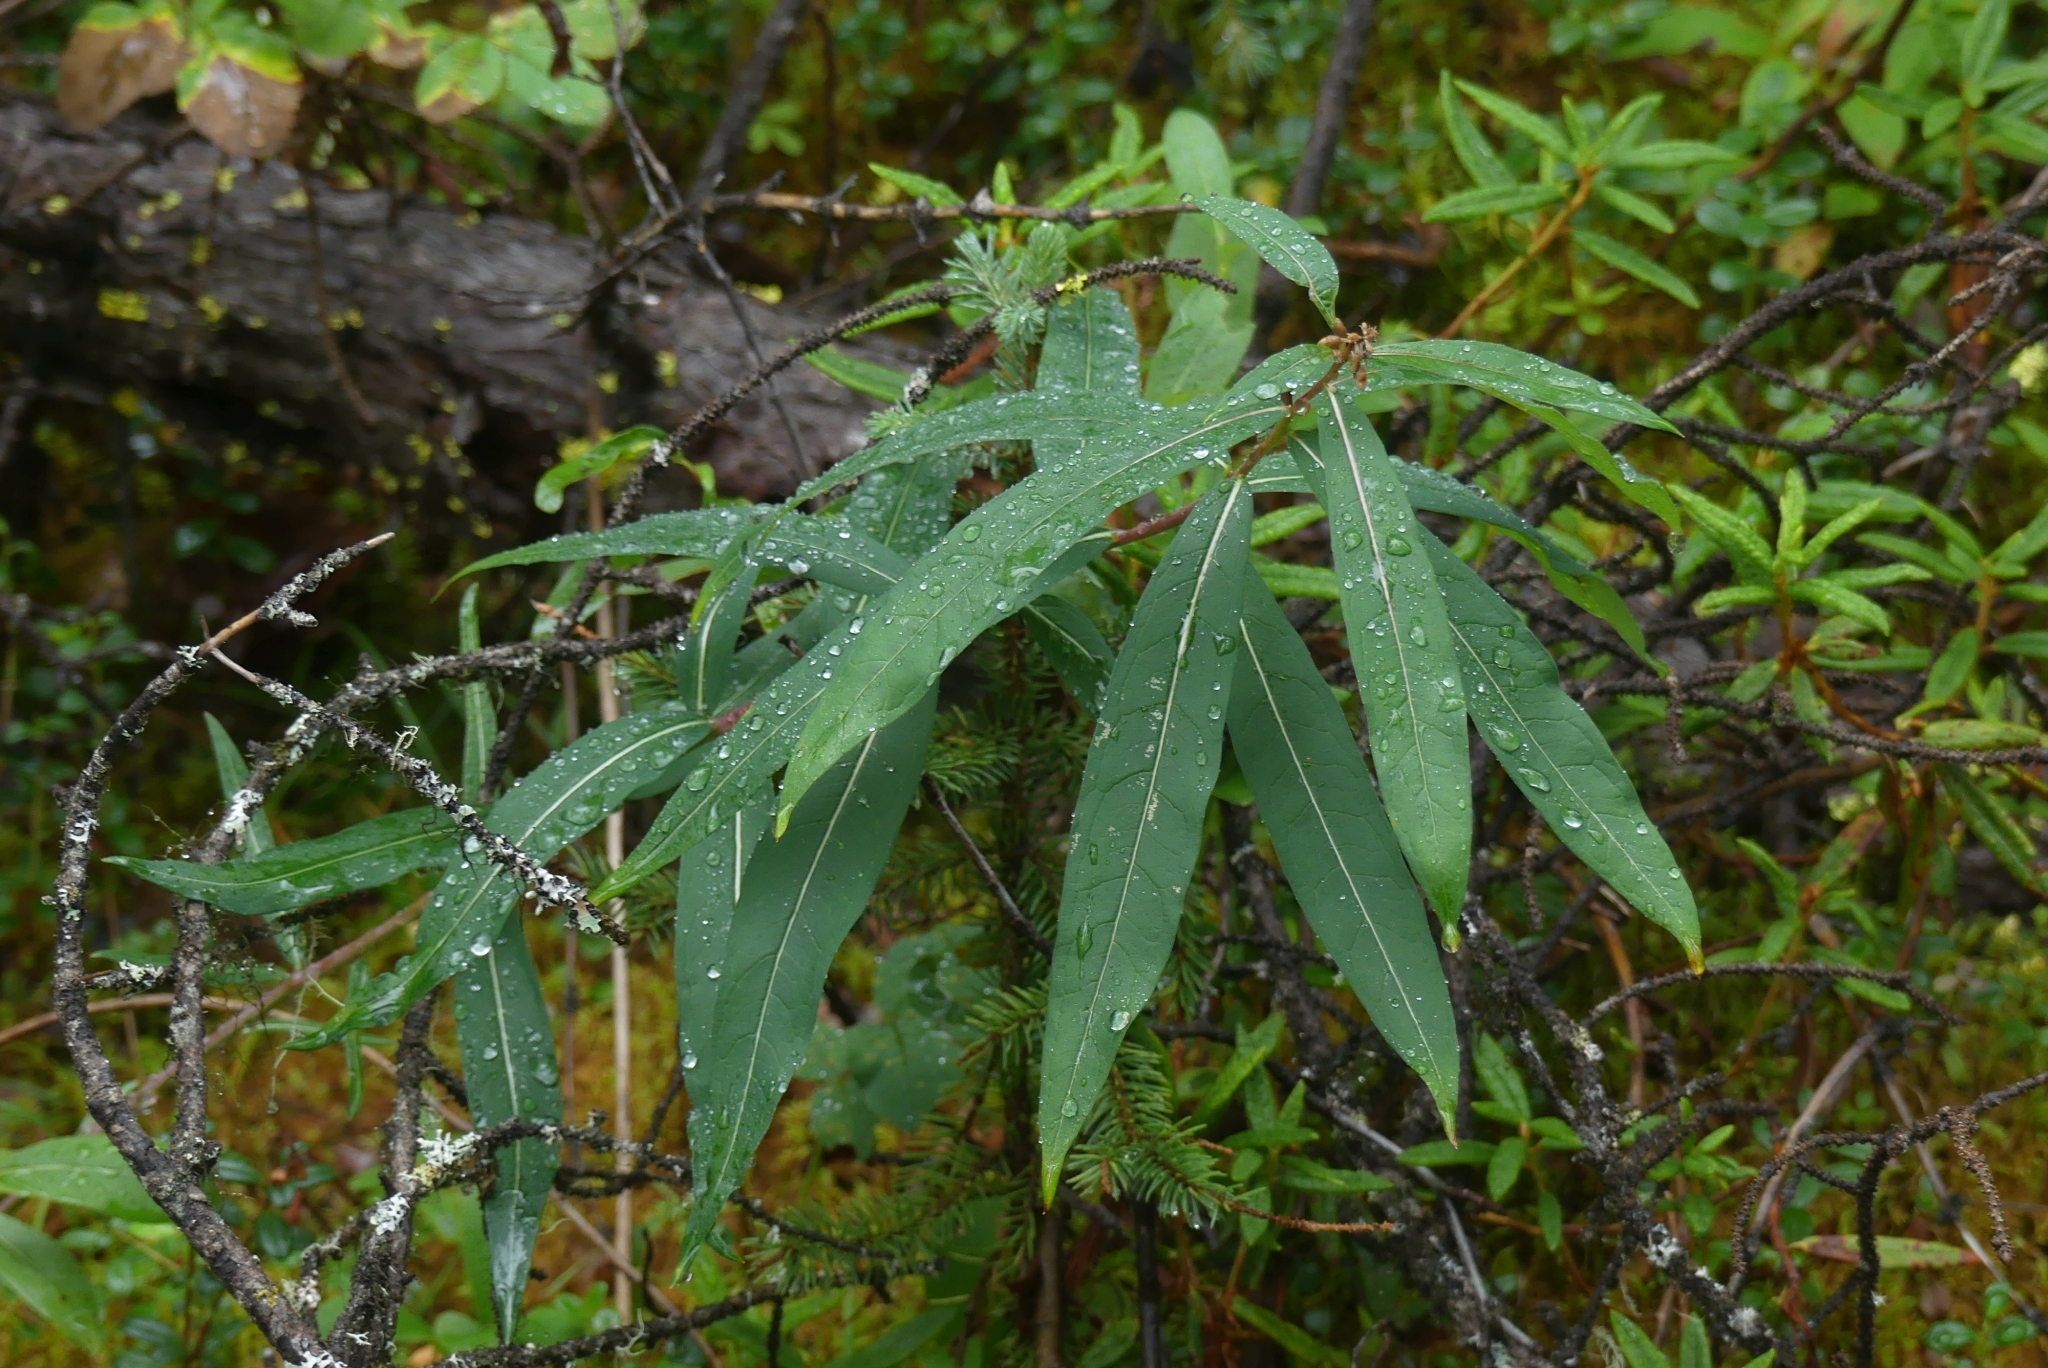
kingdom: Plantae
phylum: Tracheophyta
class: Magnoliopsida
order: Myrtales
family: Onagraceae
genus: Chamaenerion
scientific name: Chamaenerion angustifolium
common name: Fireweed
